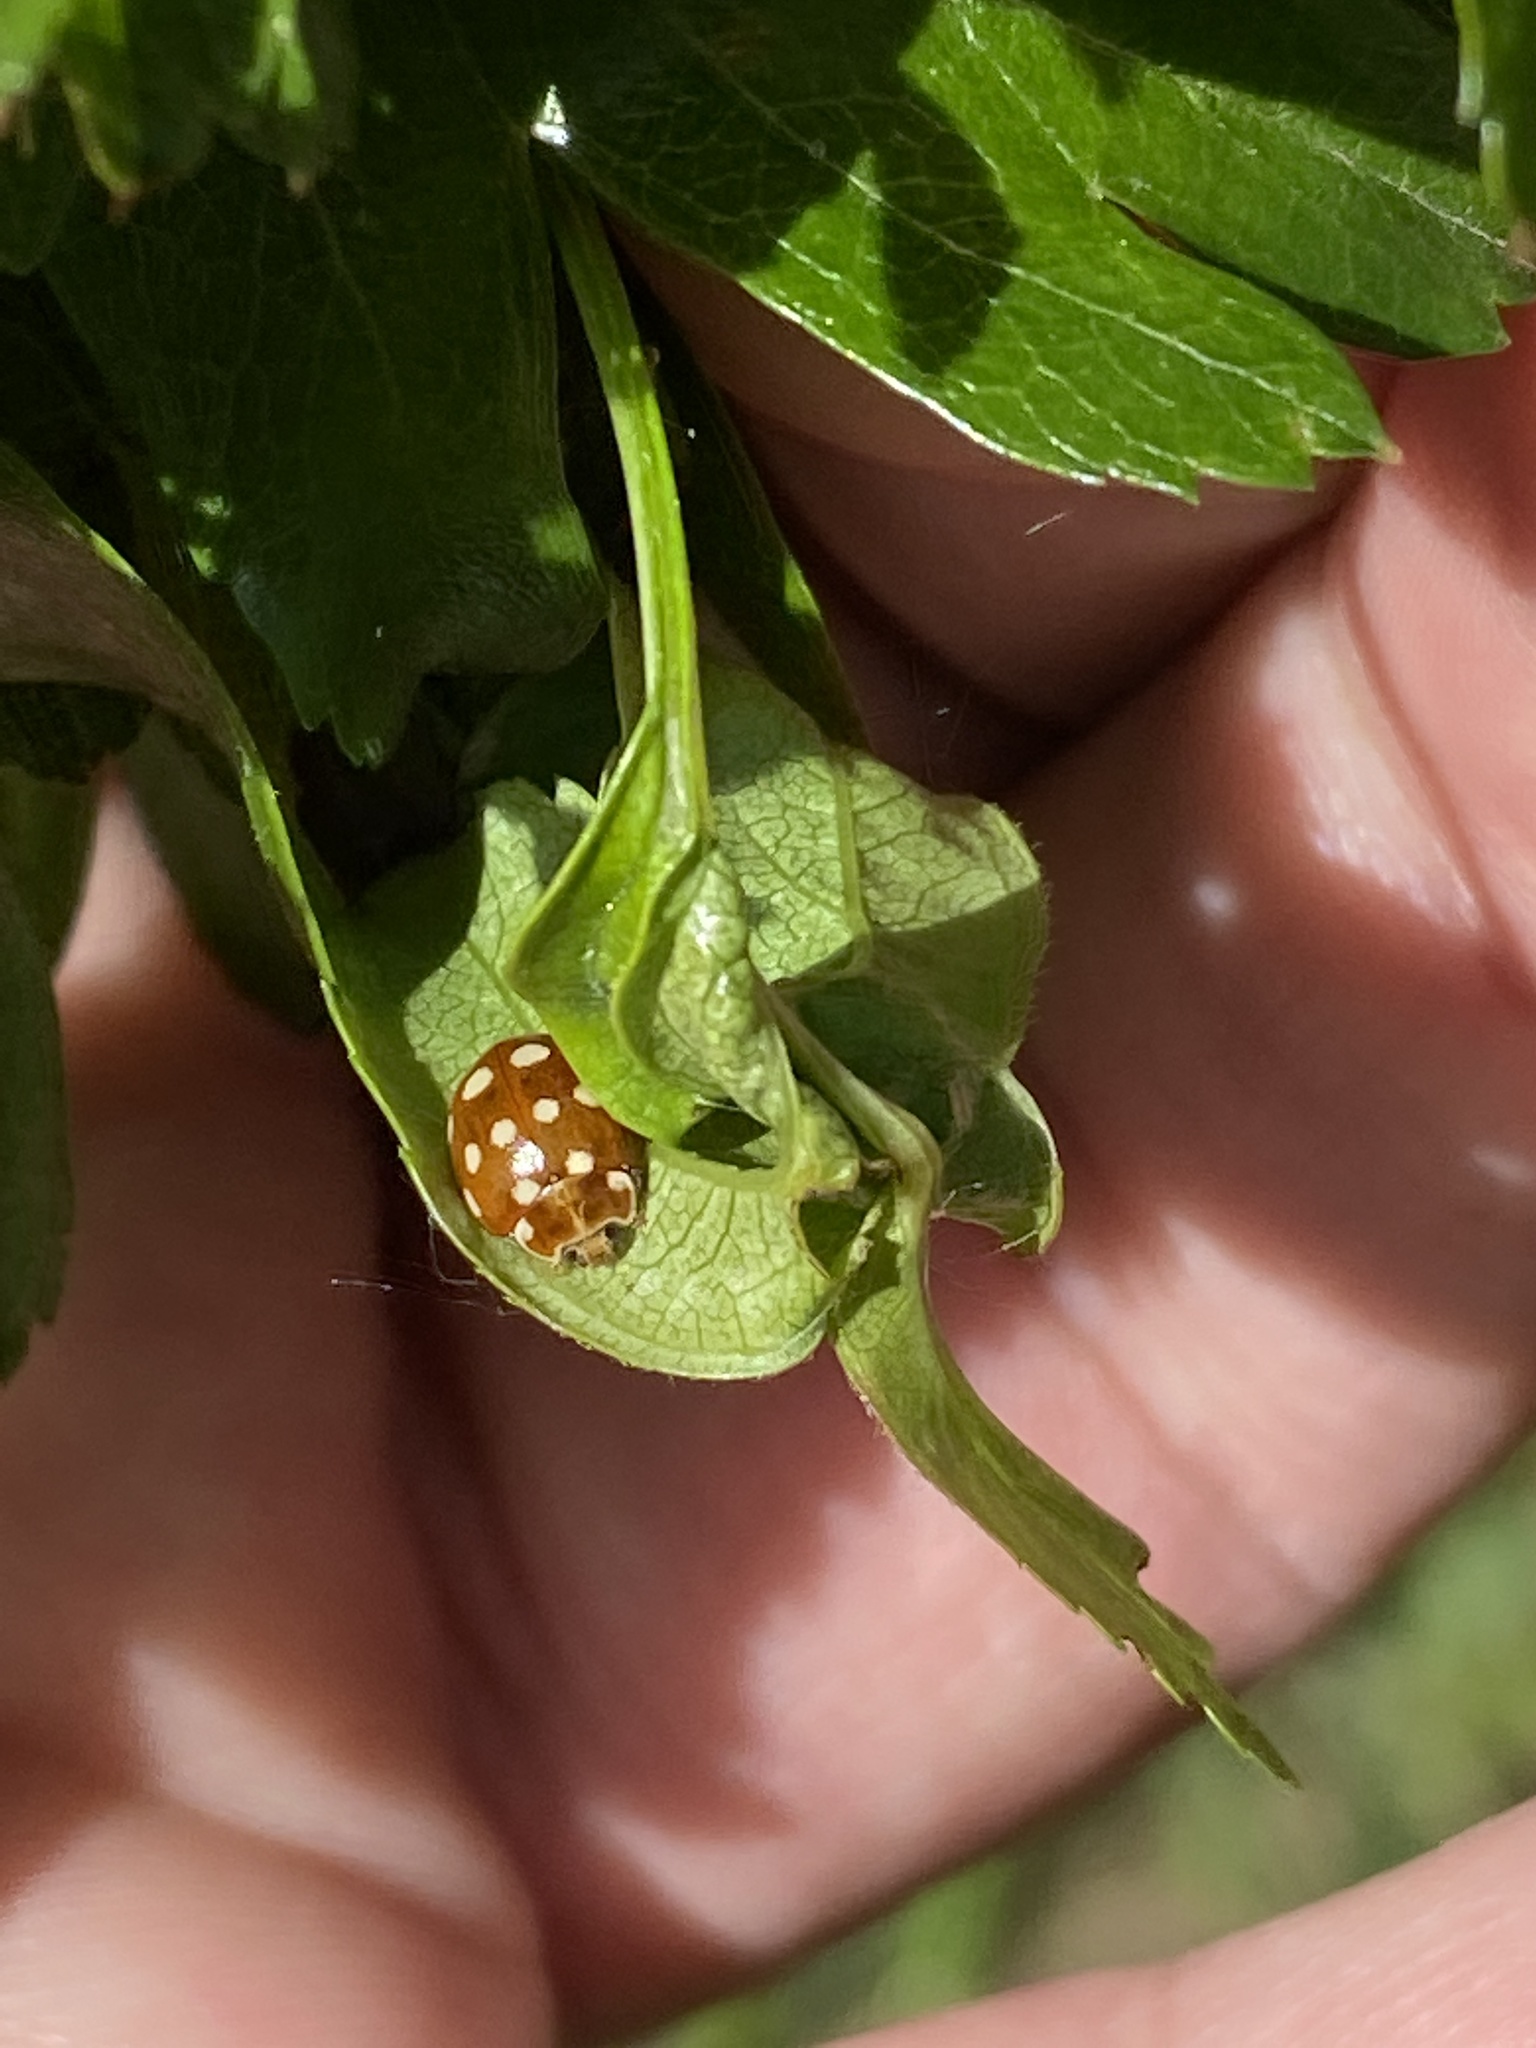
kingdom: Animalia
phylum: Arthropoda
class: Insecta
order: Coleoptera
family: Coccinellidae
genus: Calvia
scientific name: Calvia quatuordecimguttata
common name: Cream-spot ladybird
